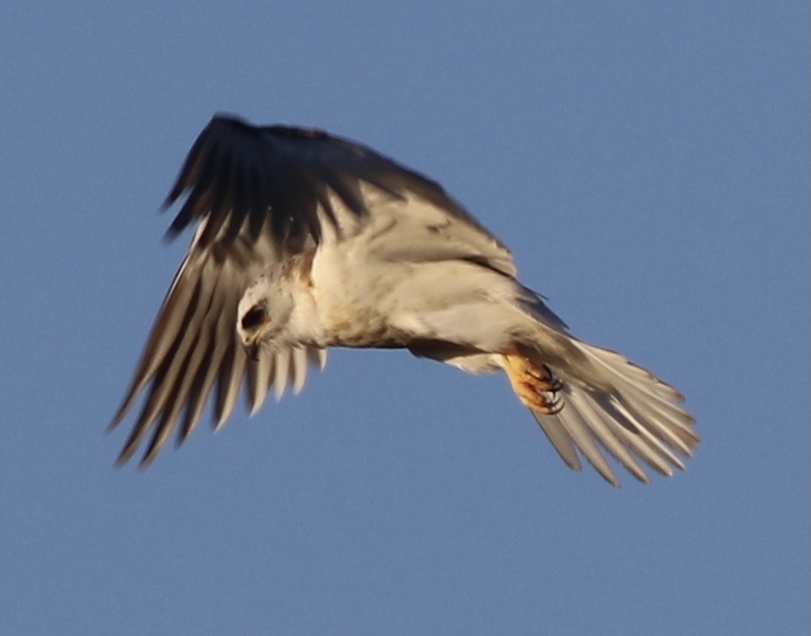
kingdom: Animalia
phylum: Chordata
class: Aves
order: Accipitriformes
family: Accipitridae
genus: Elanus
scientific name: Elanus leucurus
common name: White-tailed kite
